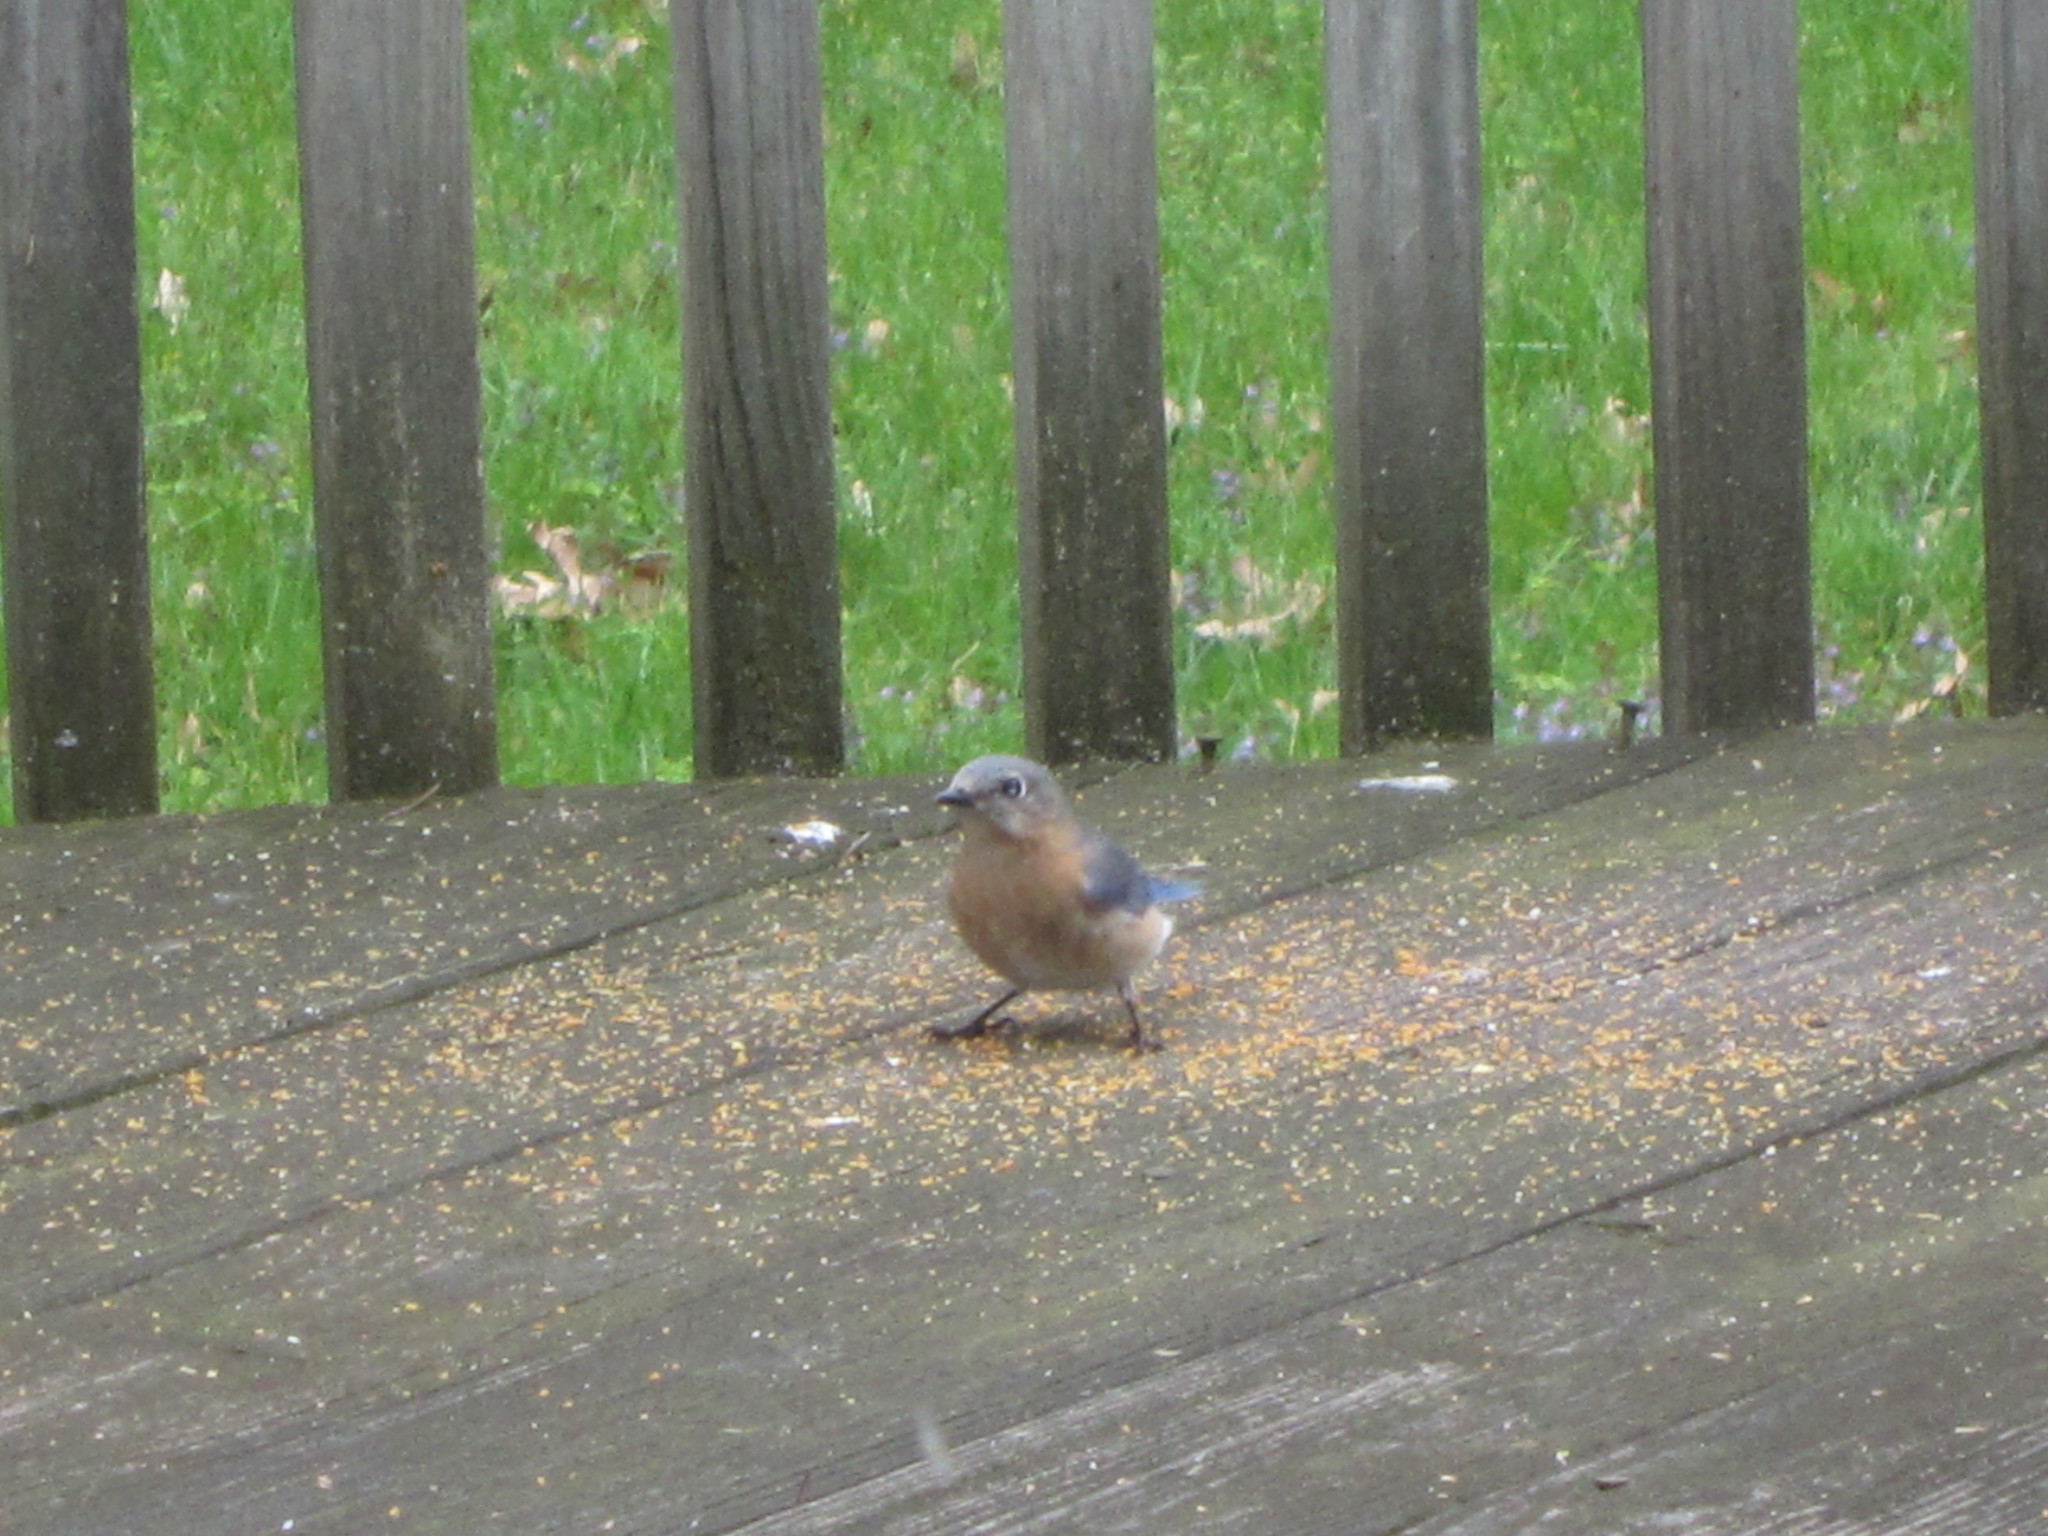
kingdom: Animalia
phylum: Chordata
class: Aves
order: Passeriformes
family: Turdidae
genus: Sialia
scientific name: Sialia sialis
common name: Eastern bluebird
